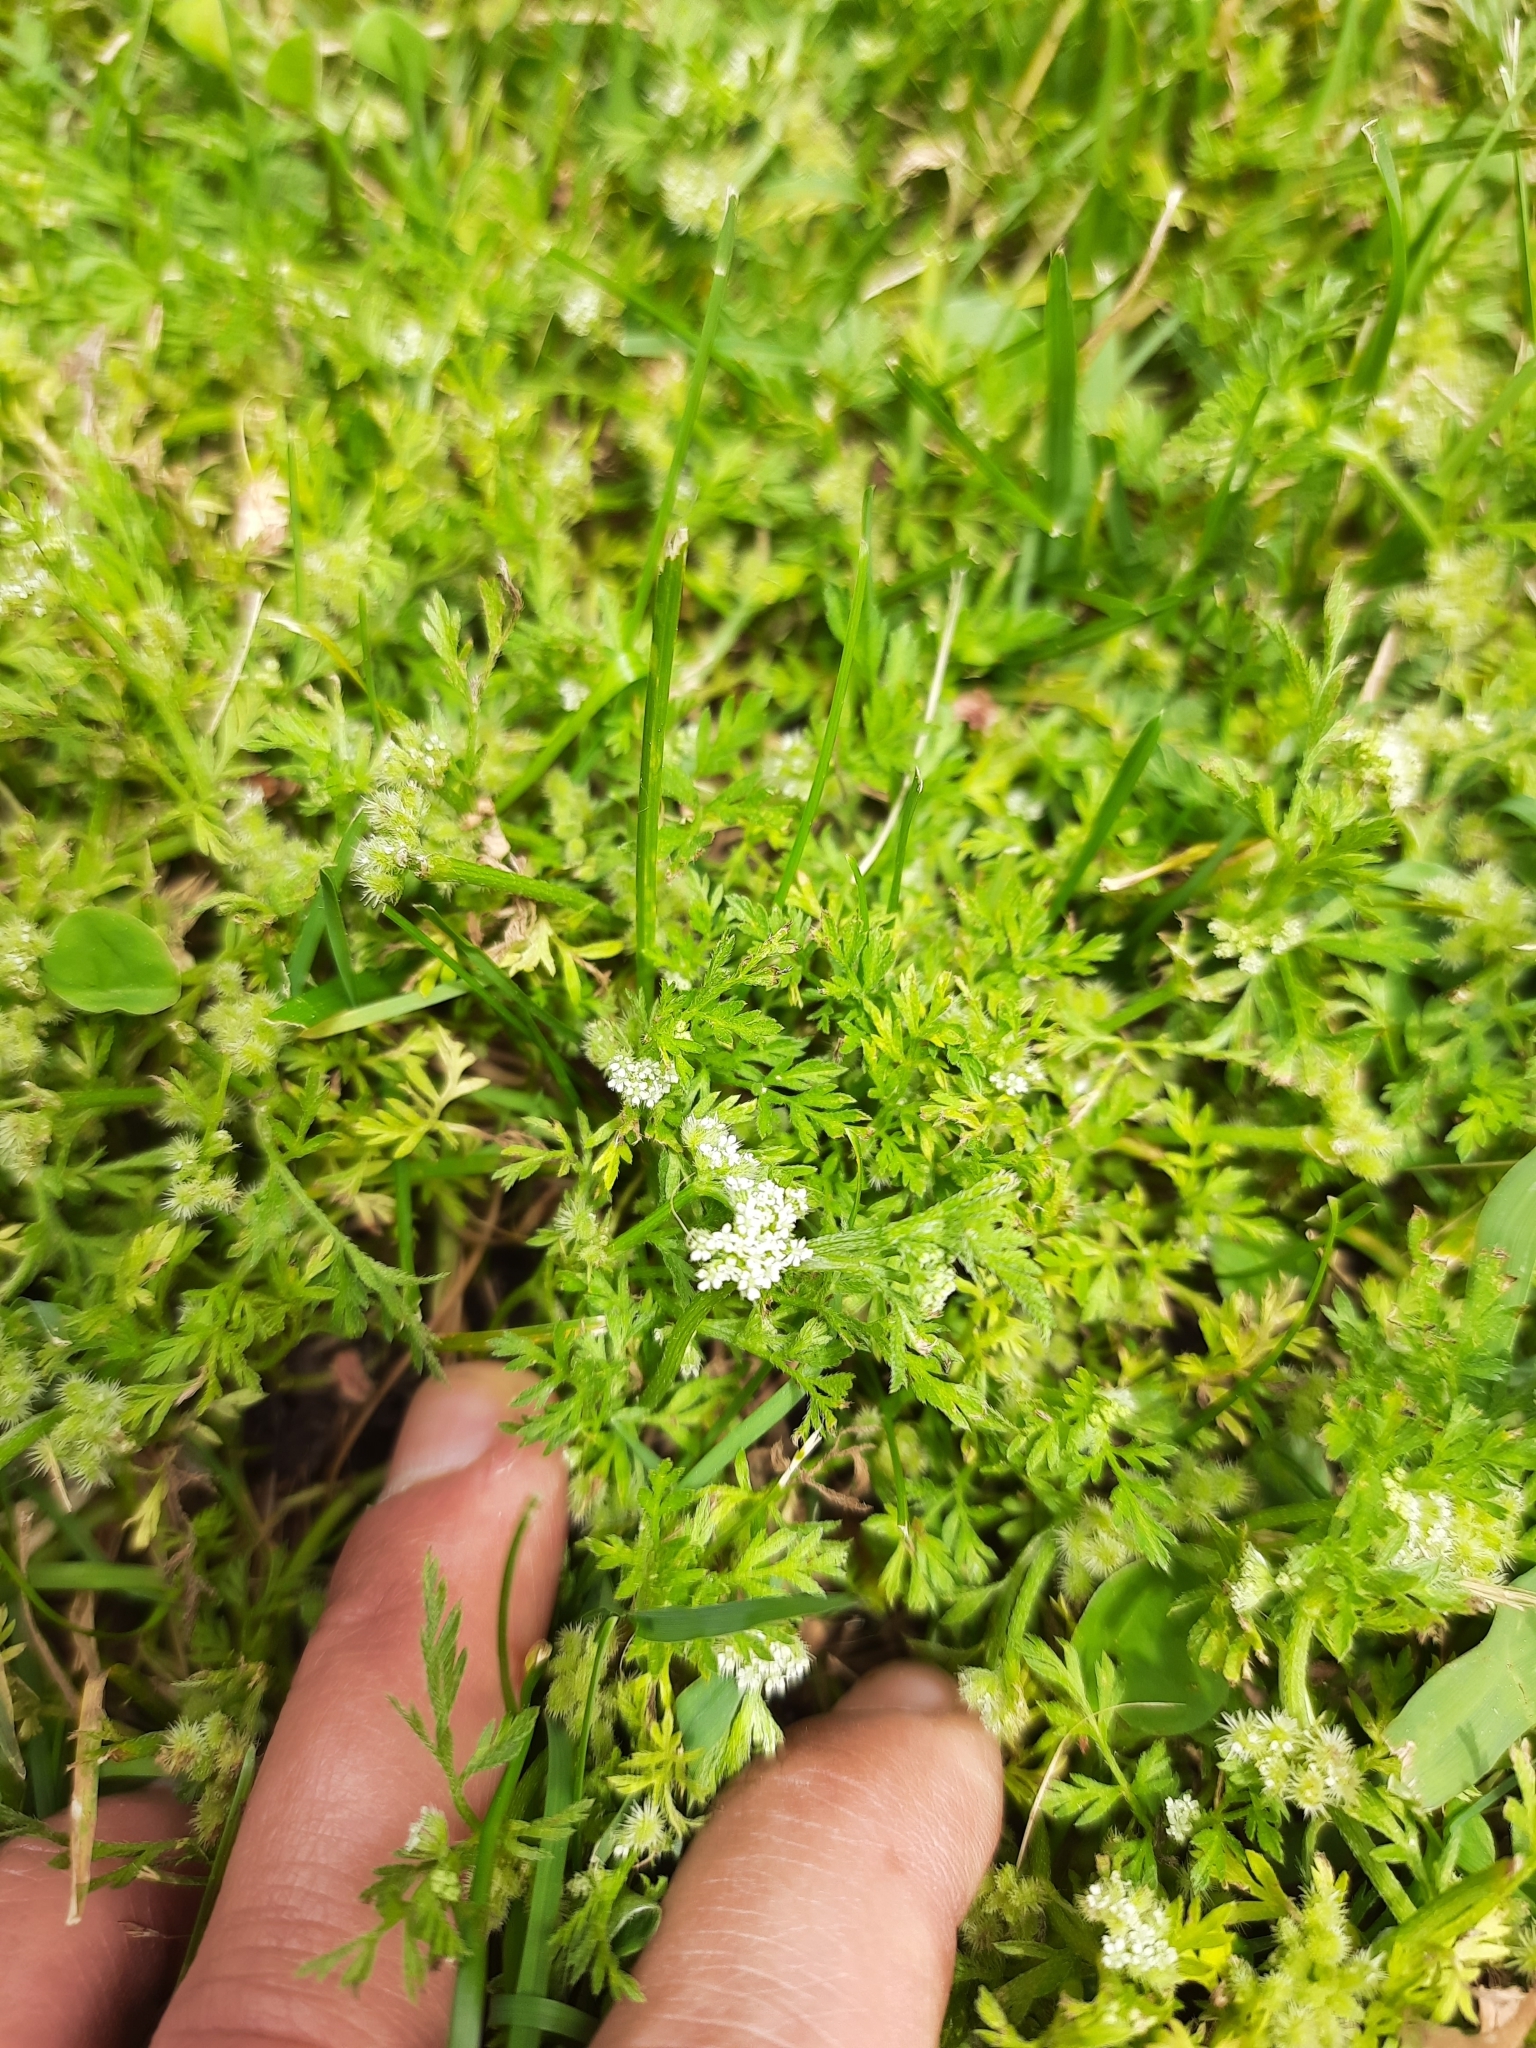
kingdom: Plantae
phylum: Tracheophyta
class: Magnoliopsida
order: Apiales
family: Apiaceae
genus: Torilis
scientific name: Torilis nodosa
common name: Knotted hedge-parsley
